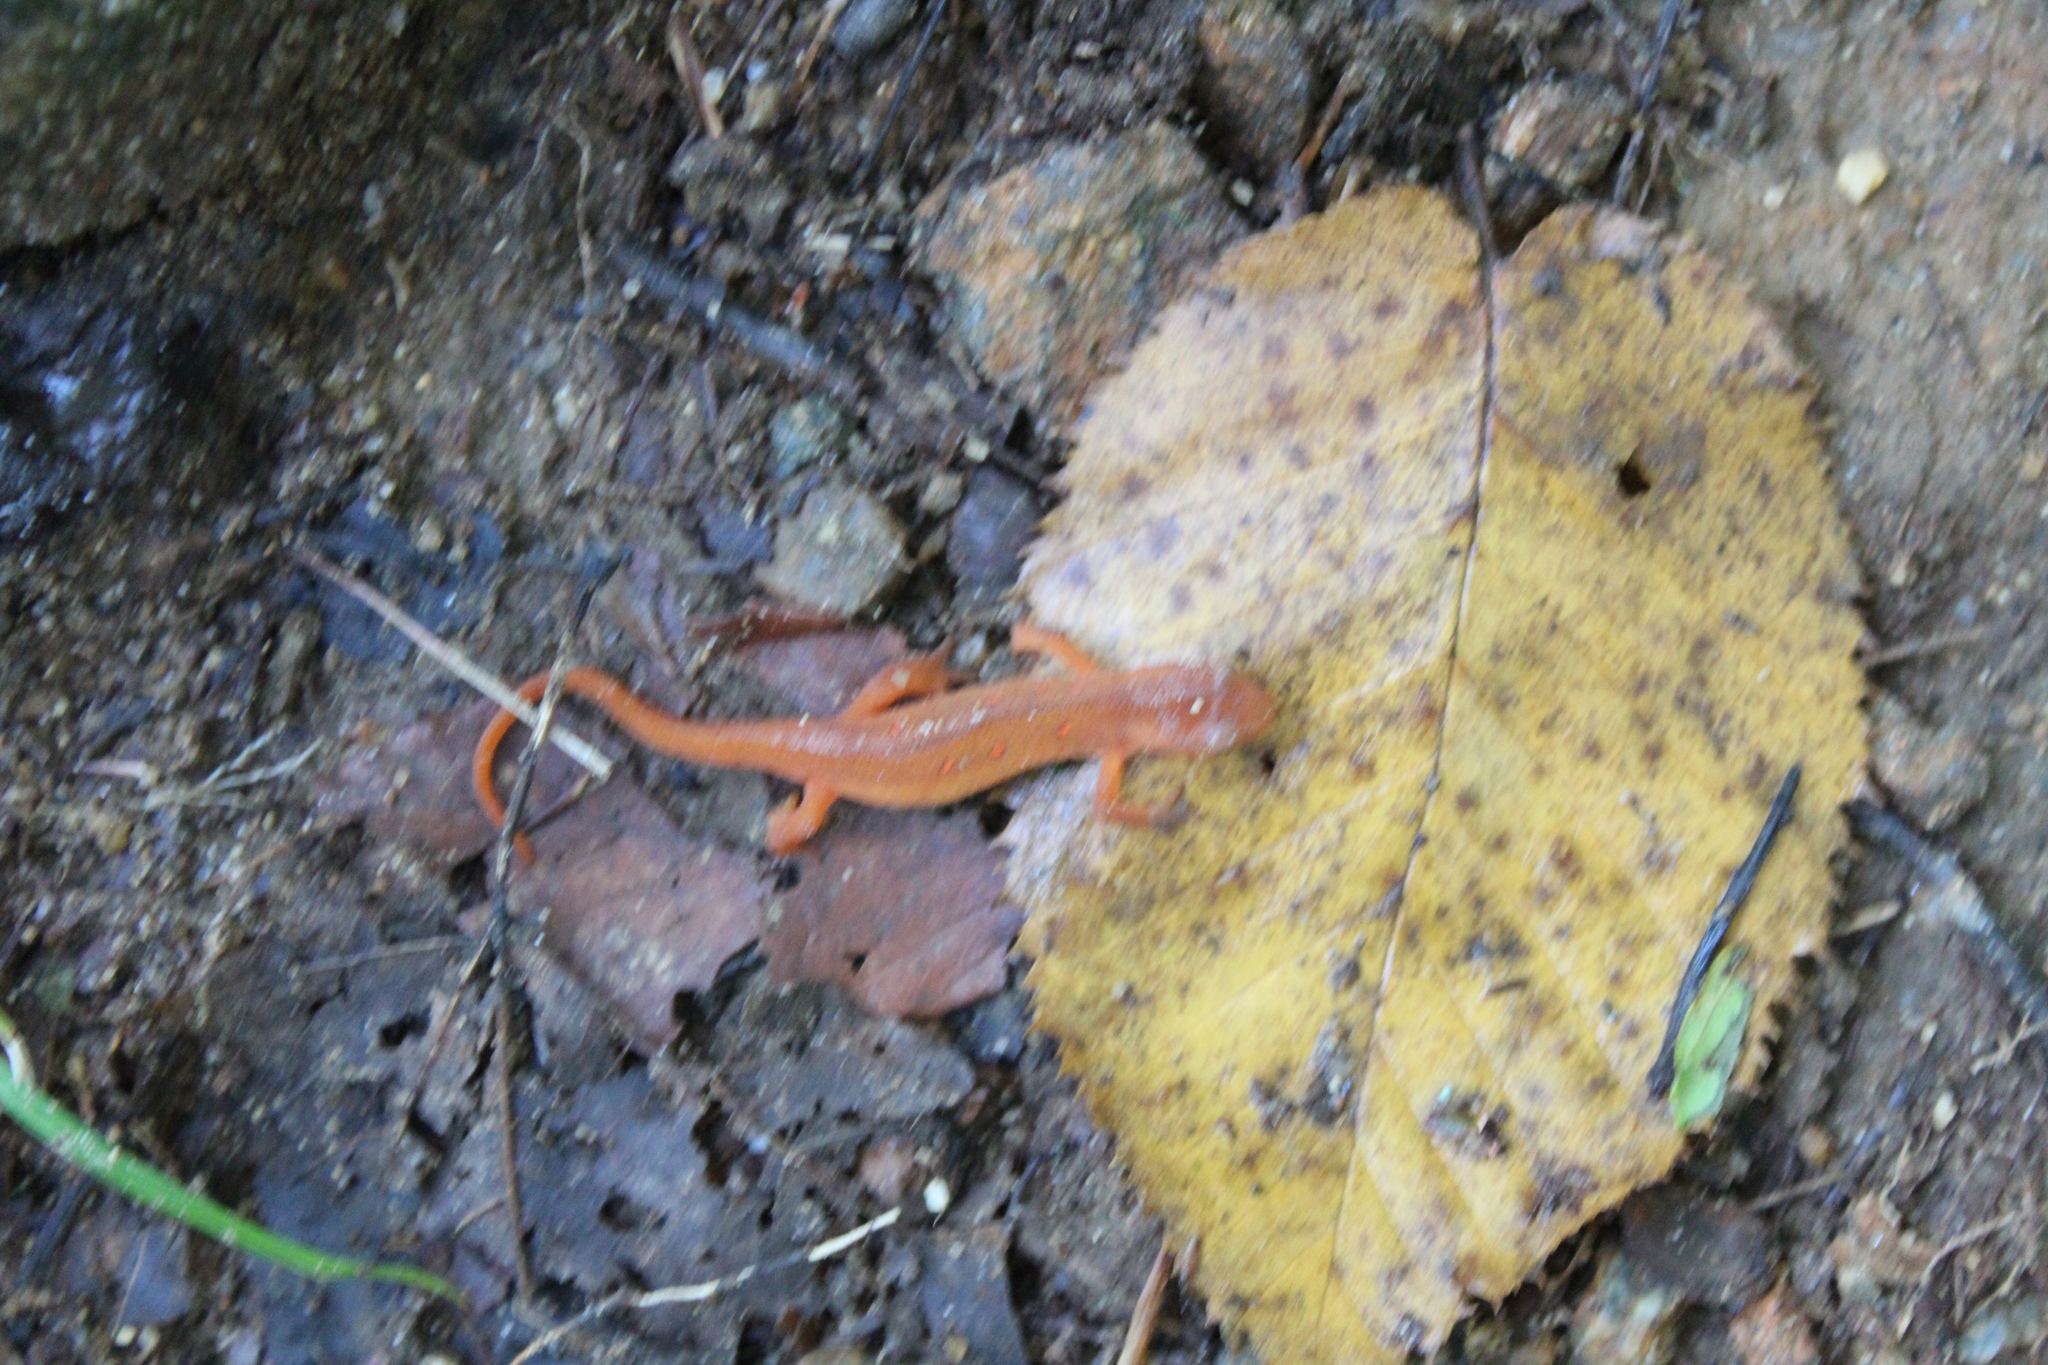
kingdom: Animalia
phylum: Chordata
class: Amphibia
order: Caudata
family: Salamandridae
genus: Notophthalmus
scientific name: Notophthalmus viridescens
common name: Eastern newt
